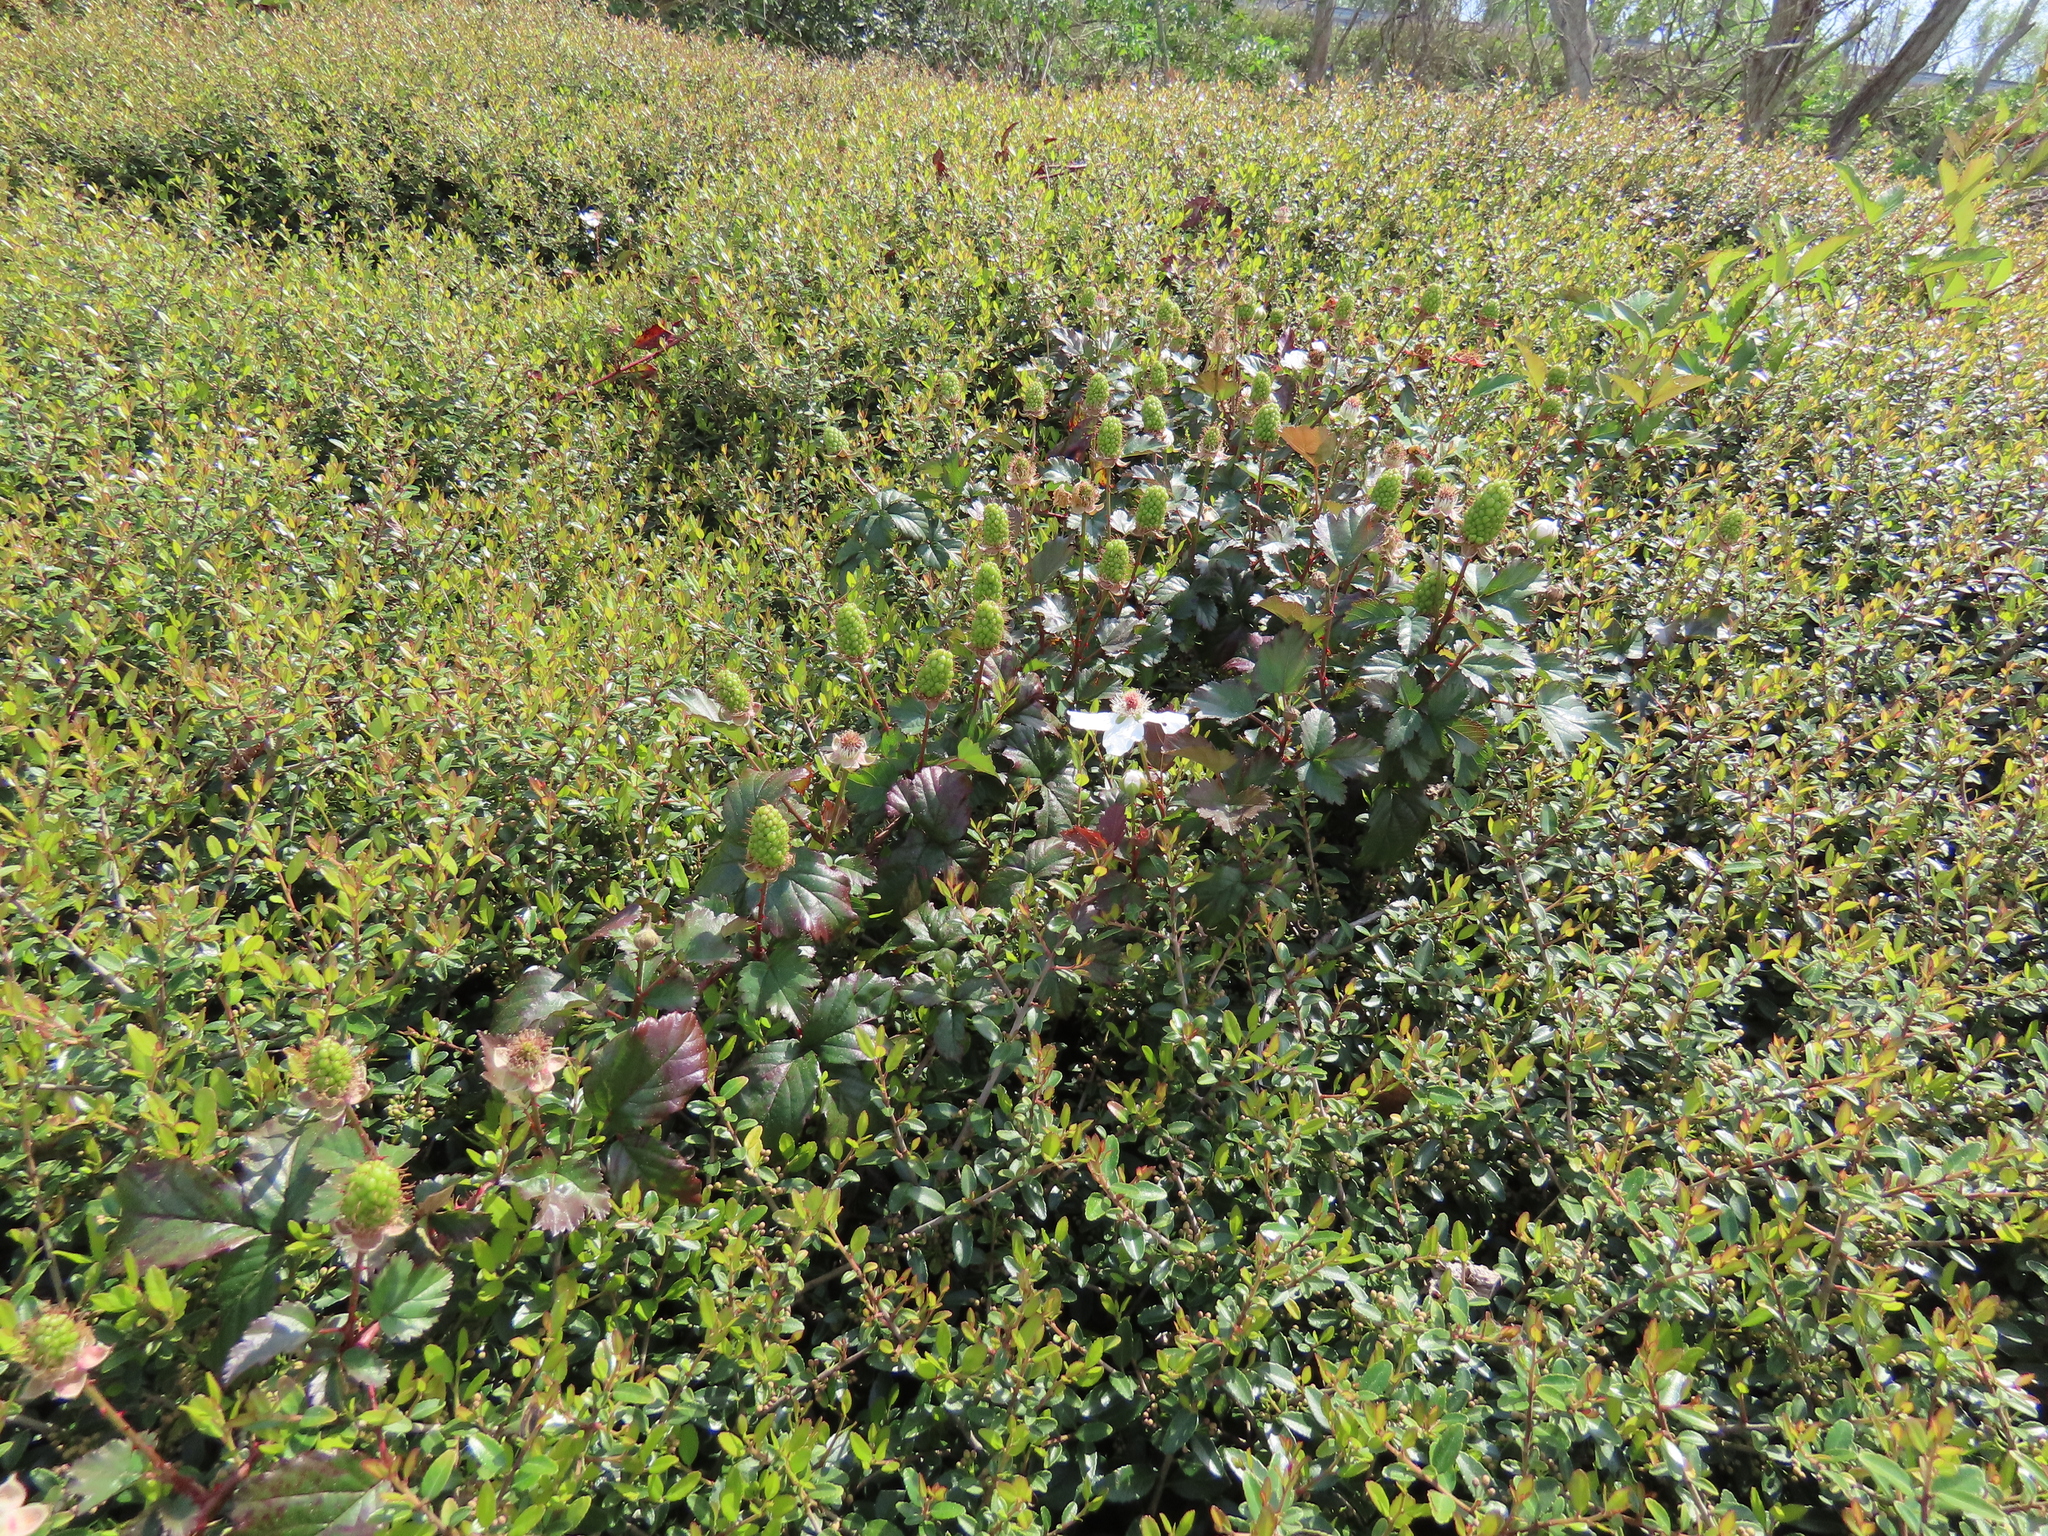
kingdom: Plantae
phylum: Tracheophyta
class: Magnoliopsida
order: Rosales
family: Rosaceae
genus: Rubus
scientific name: Rubus trivialis
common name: Southern dewberry
